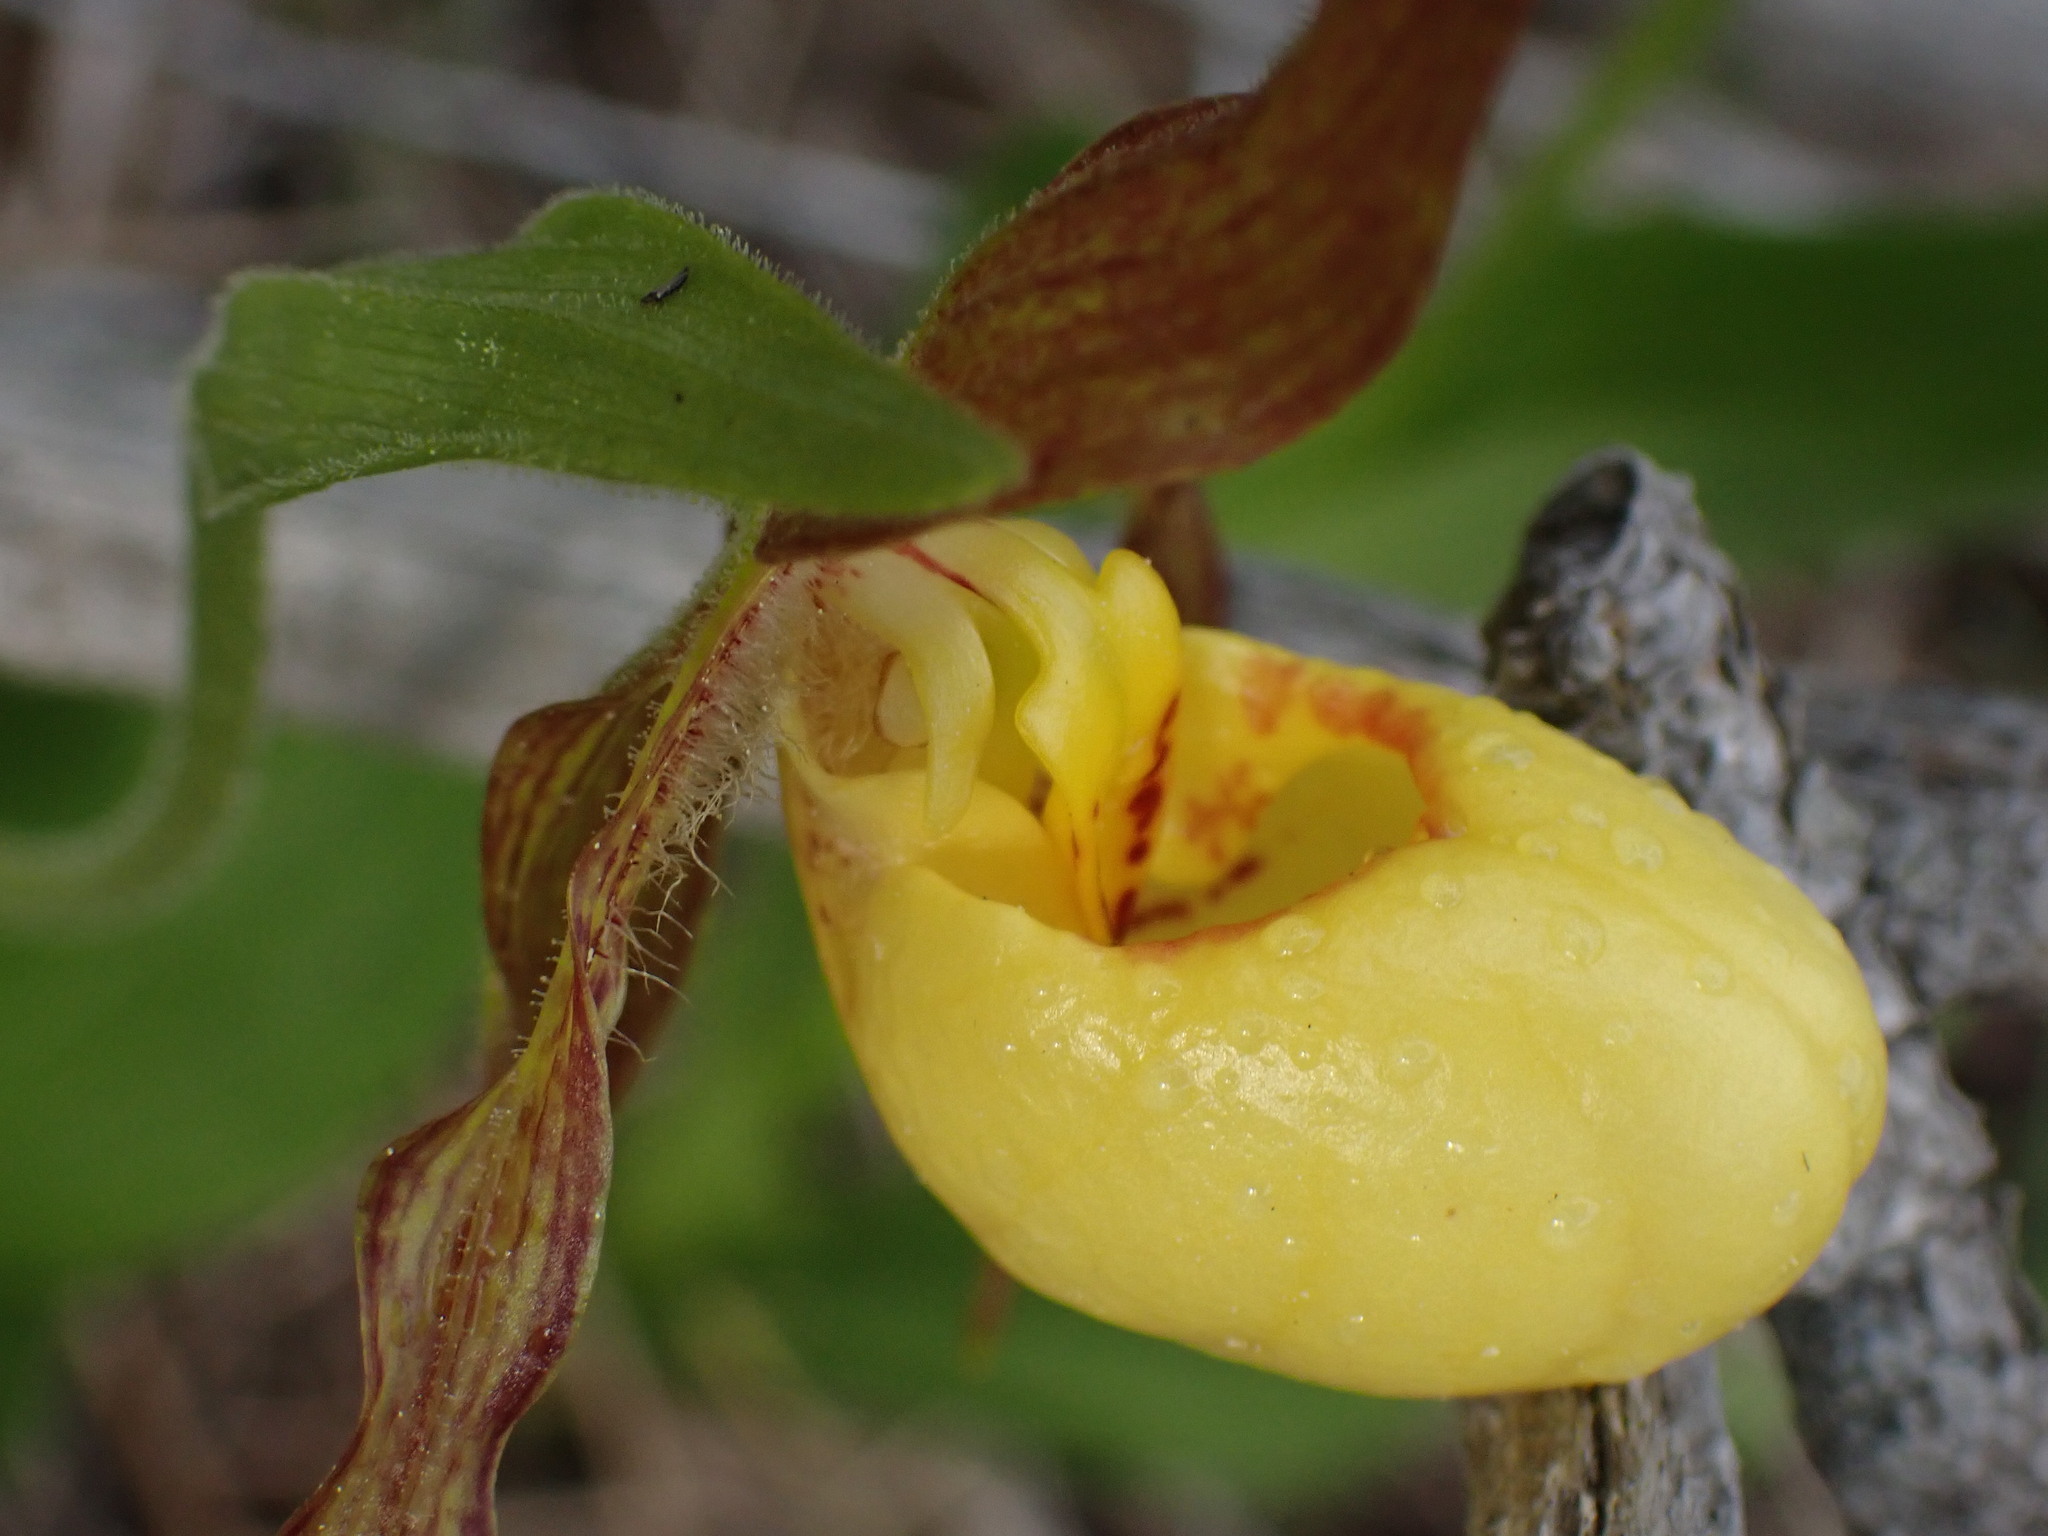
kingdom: Plantae
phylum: Tracheophyta
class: Liliopsida
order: Asparagales
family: Orchidaceae
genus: Cypripedium
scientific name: Cypripedium parviflorum
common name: American yellow lady's-slipper
